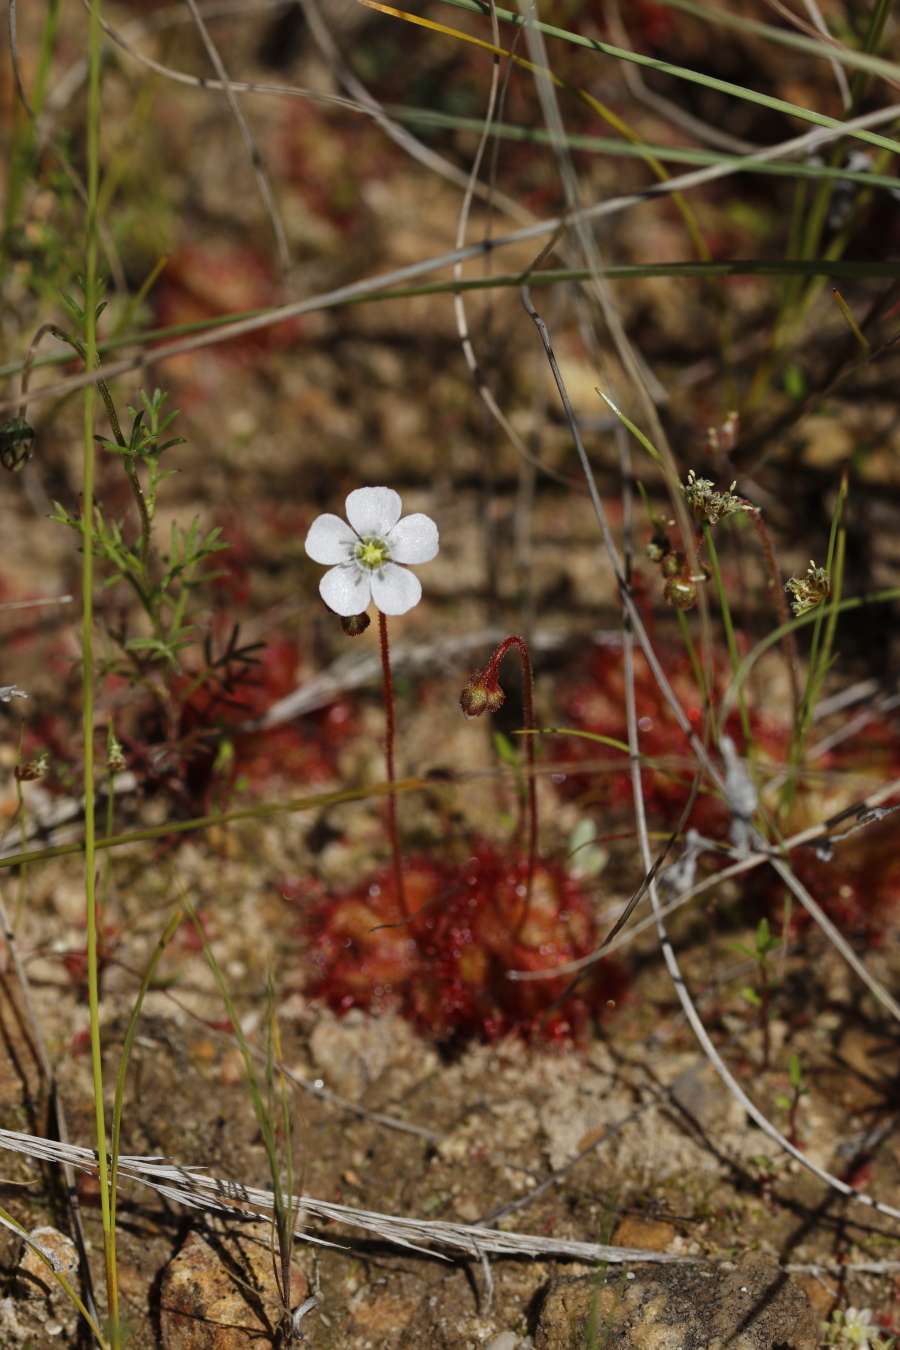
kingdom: Plantae
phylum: Tracheophyta
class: Magnoliopsida
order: Caryophyllales
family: Droseraceae
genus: Drosera
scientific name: Drosera trinervia
